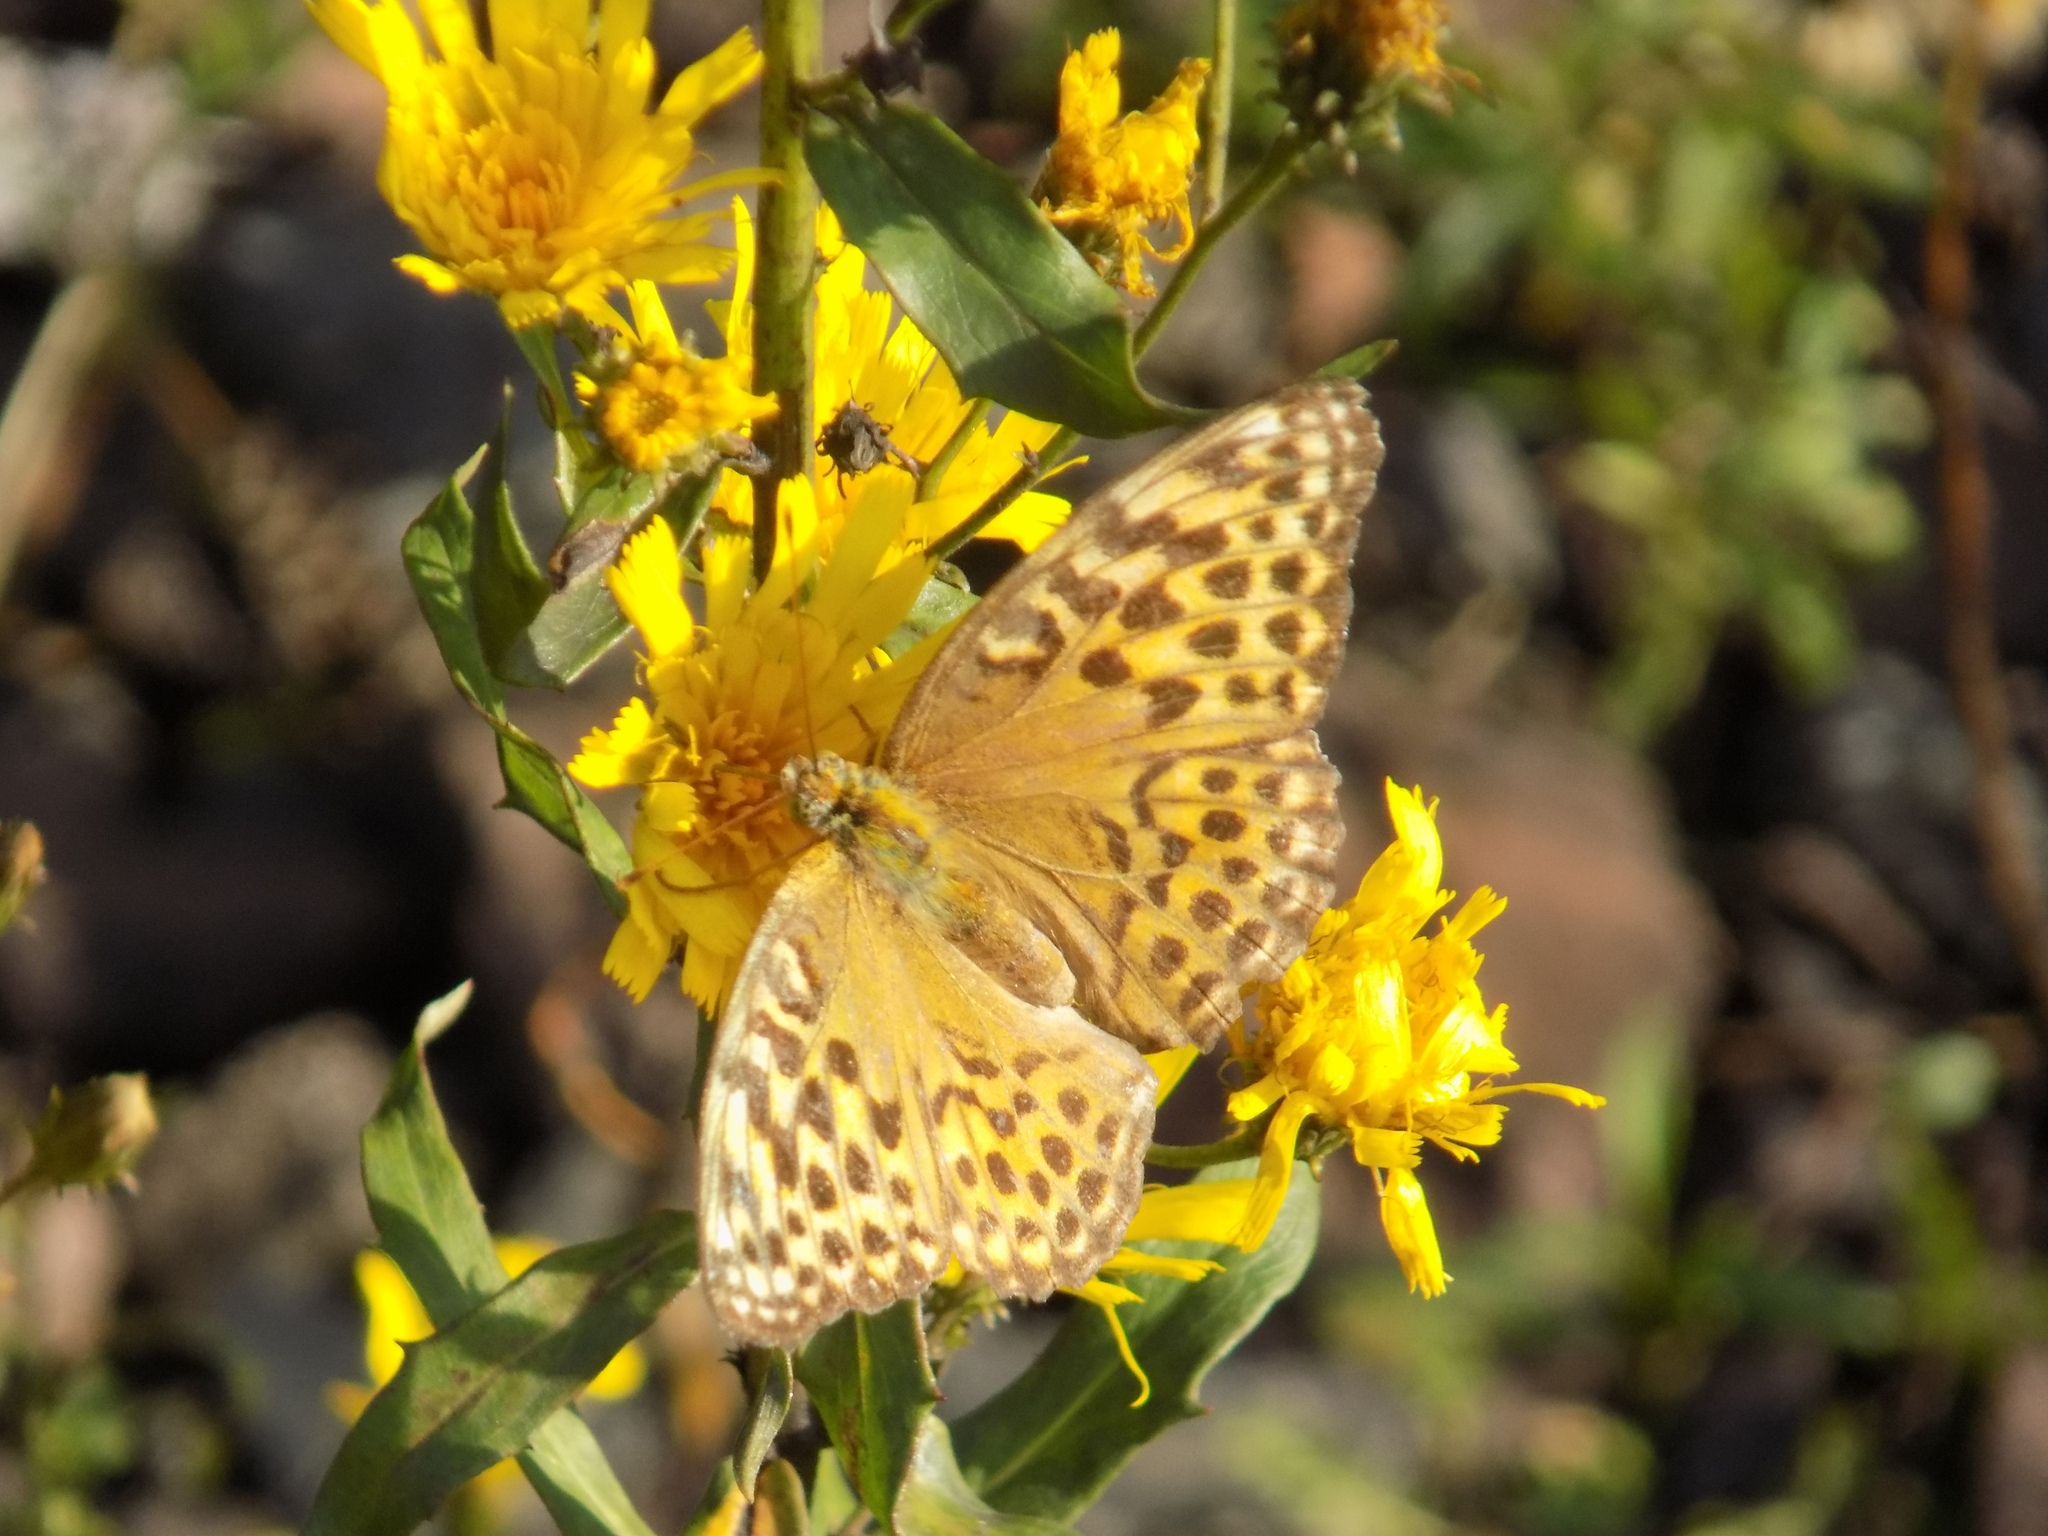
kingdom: Animalia
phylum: Arthropoda
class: Insecta
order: Lepidoptera
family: Nymphalidae
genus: Argynnis
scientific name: Argynnis paphia
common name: Silver-washed fritillary
